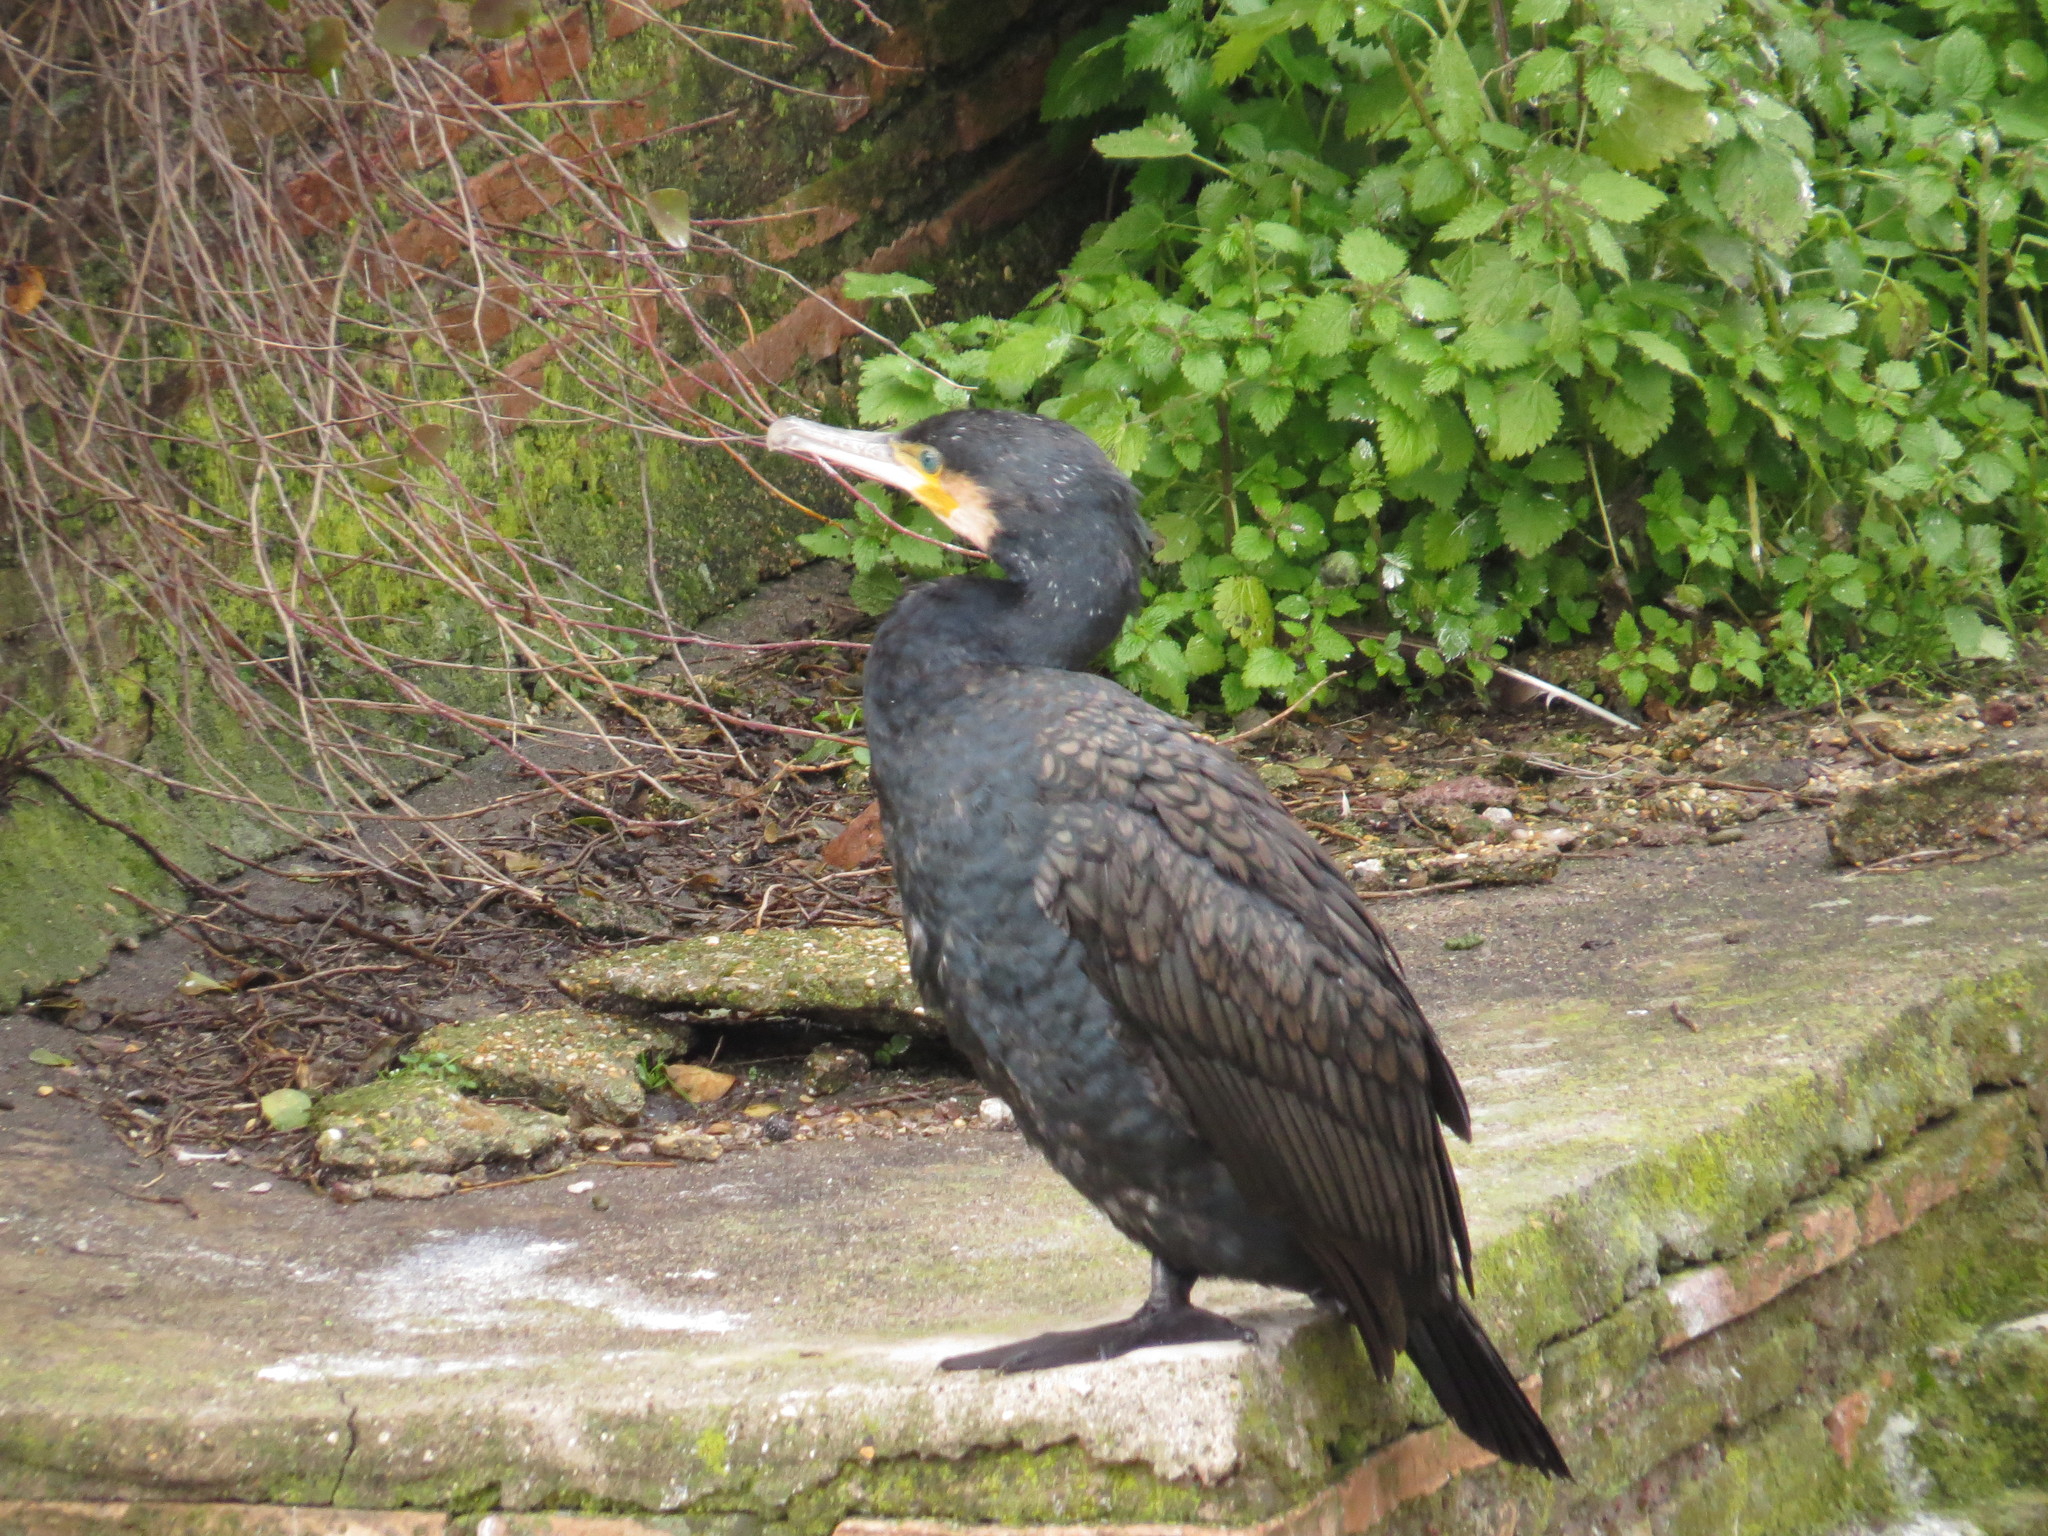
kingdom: Animalia
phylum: Chordata
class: Aves
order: Suliformes
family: Phalacrocoracidae
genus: Phalacrocorax
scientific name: Phalacrocorax carbo
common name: Great cormorant
